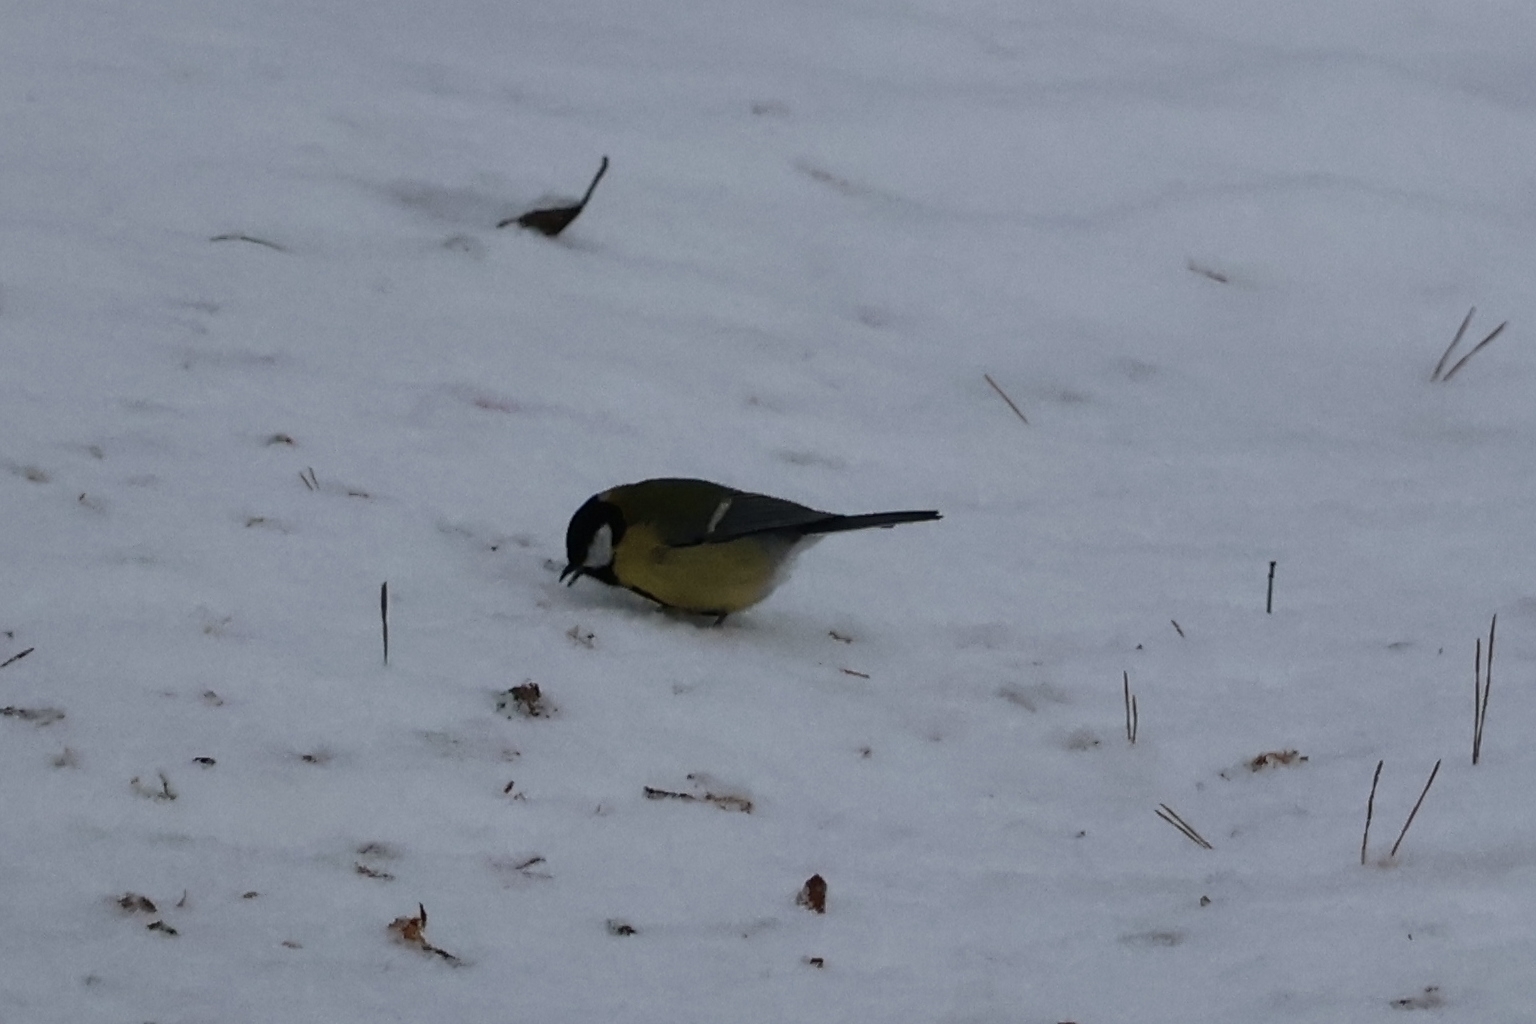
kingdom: Animalia
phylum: Chordata
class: Aves
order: Passeriformes
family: Paridae
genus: Parus
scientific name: Parus major
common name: Great tit
